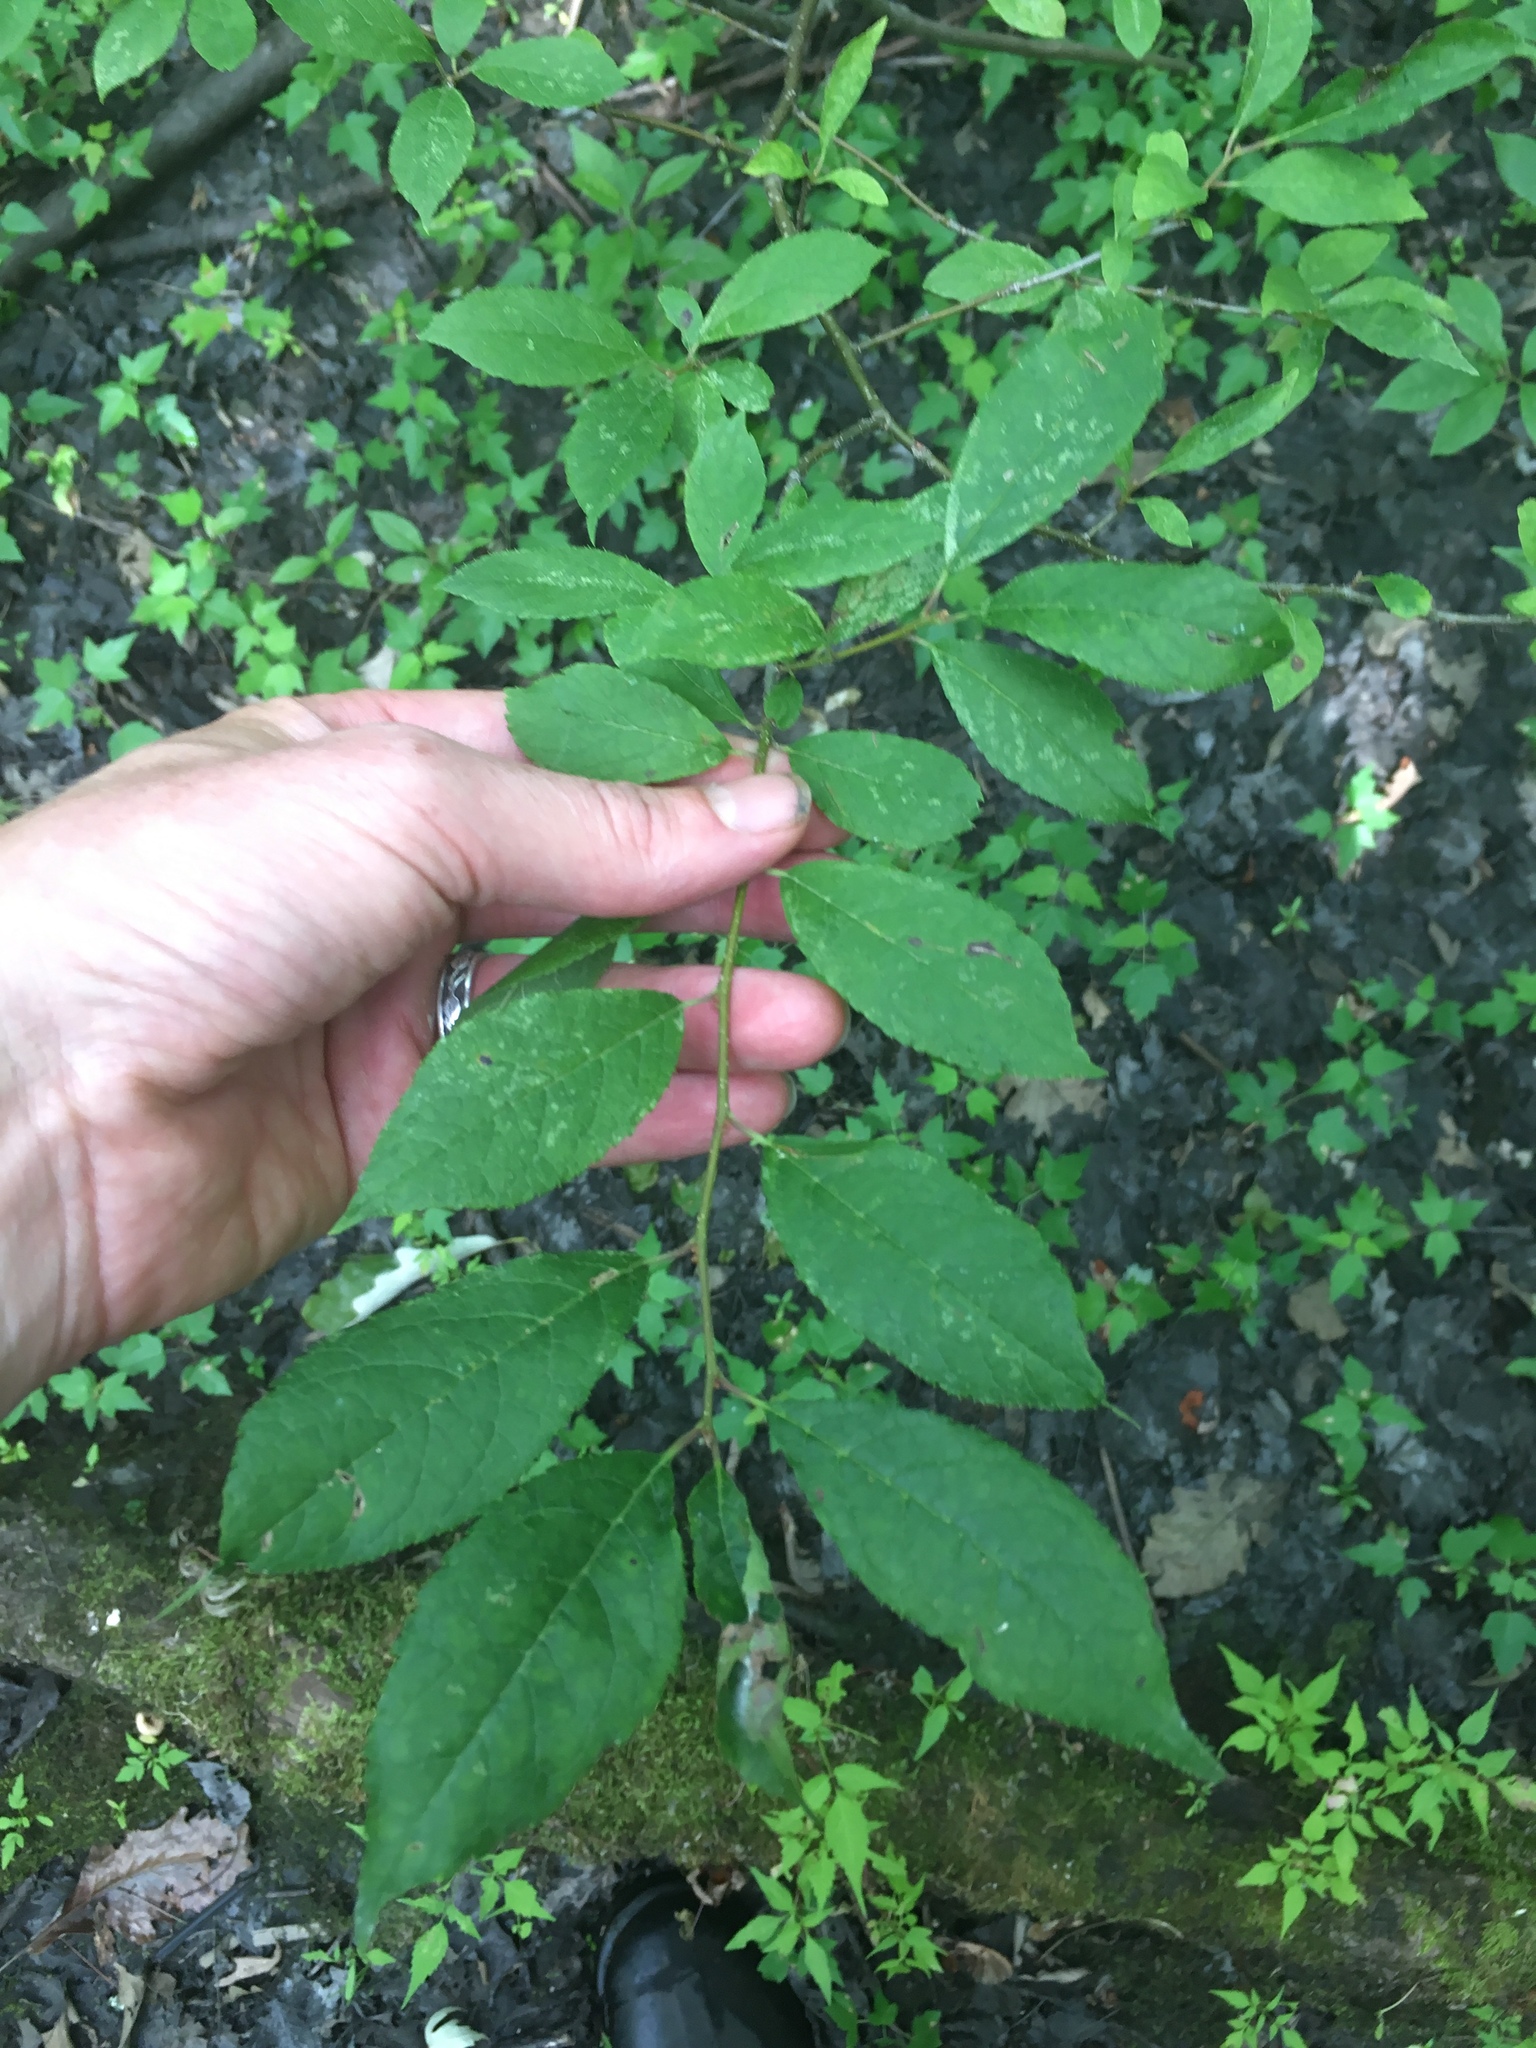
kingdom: Plantae
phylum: Tracheophyta
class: Magnoliopsida
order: Aquifoliales
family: Aquifoliaceae
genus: Ilex
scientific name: Ilex verticillata
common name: Virginia winterberry
